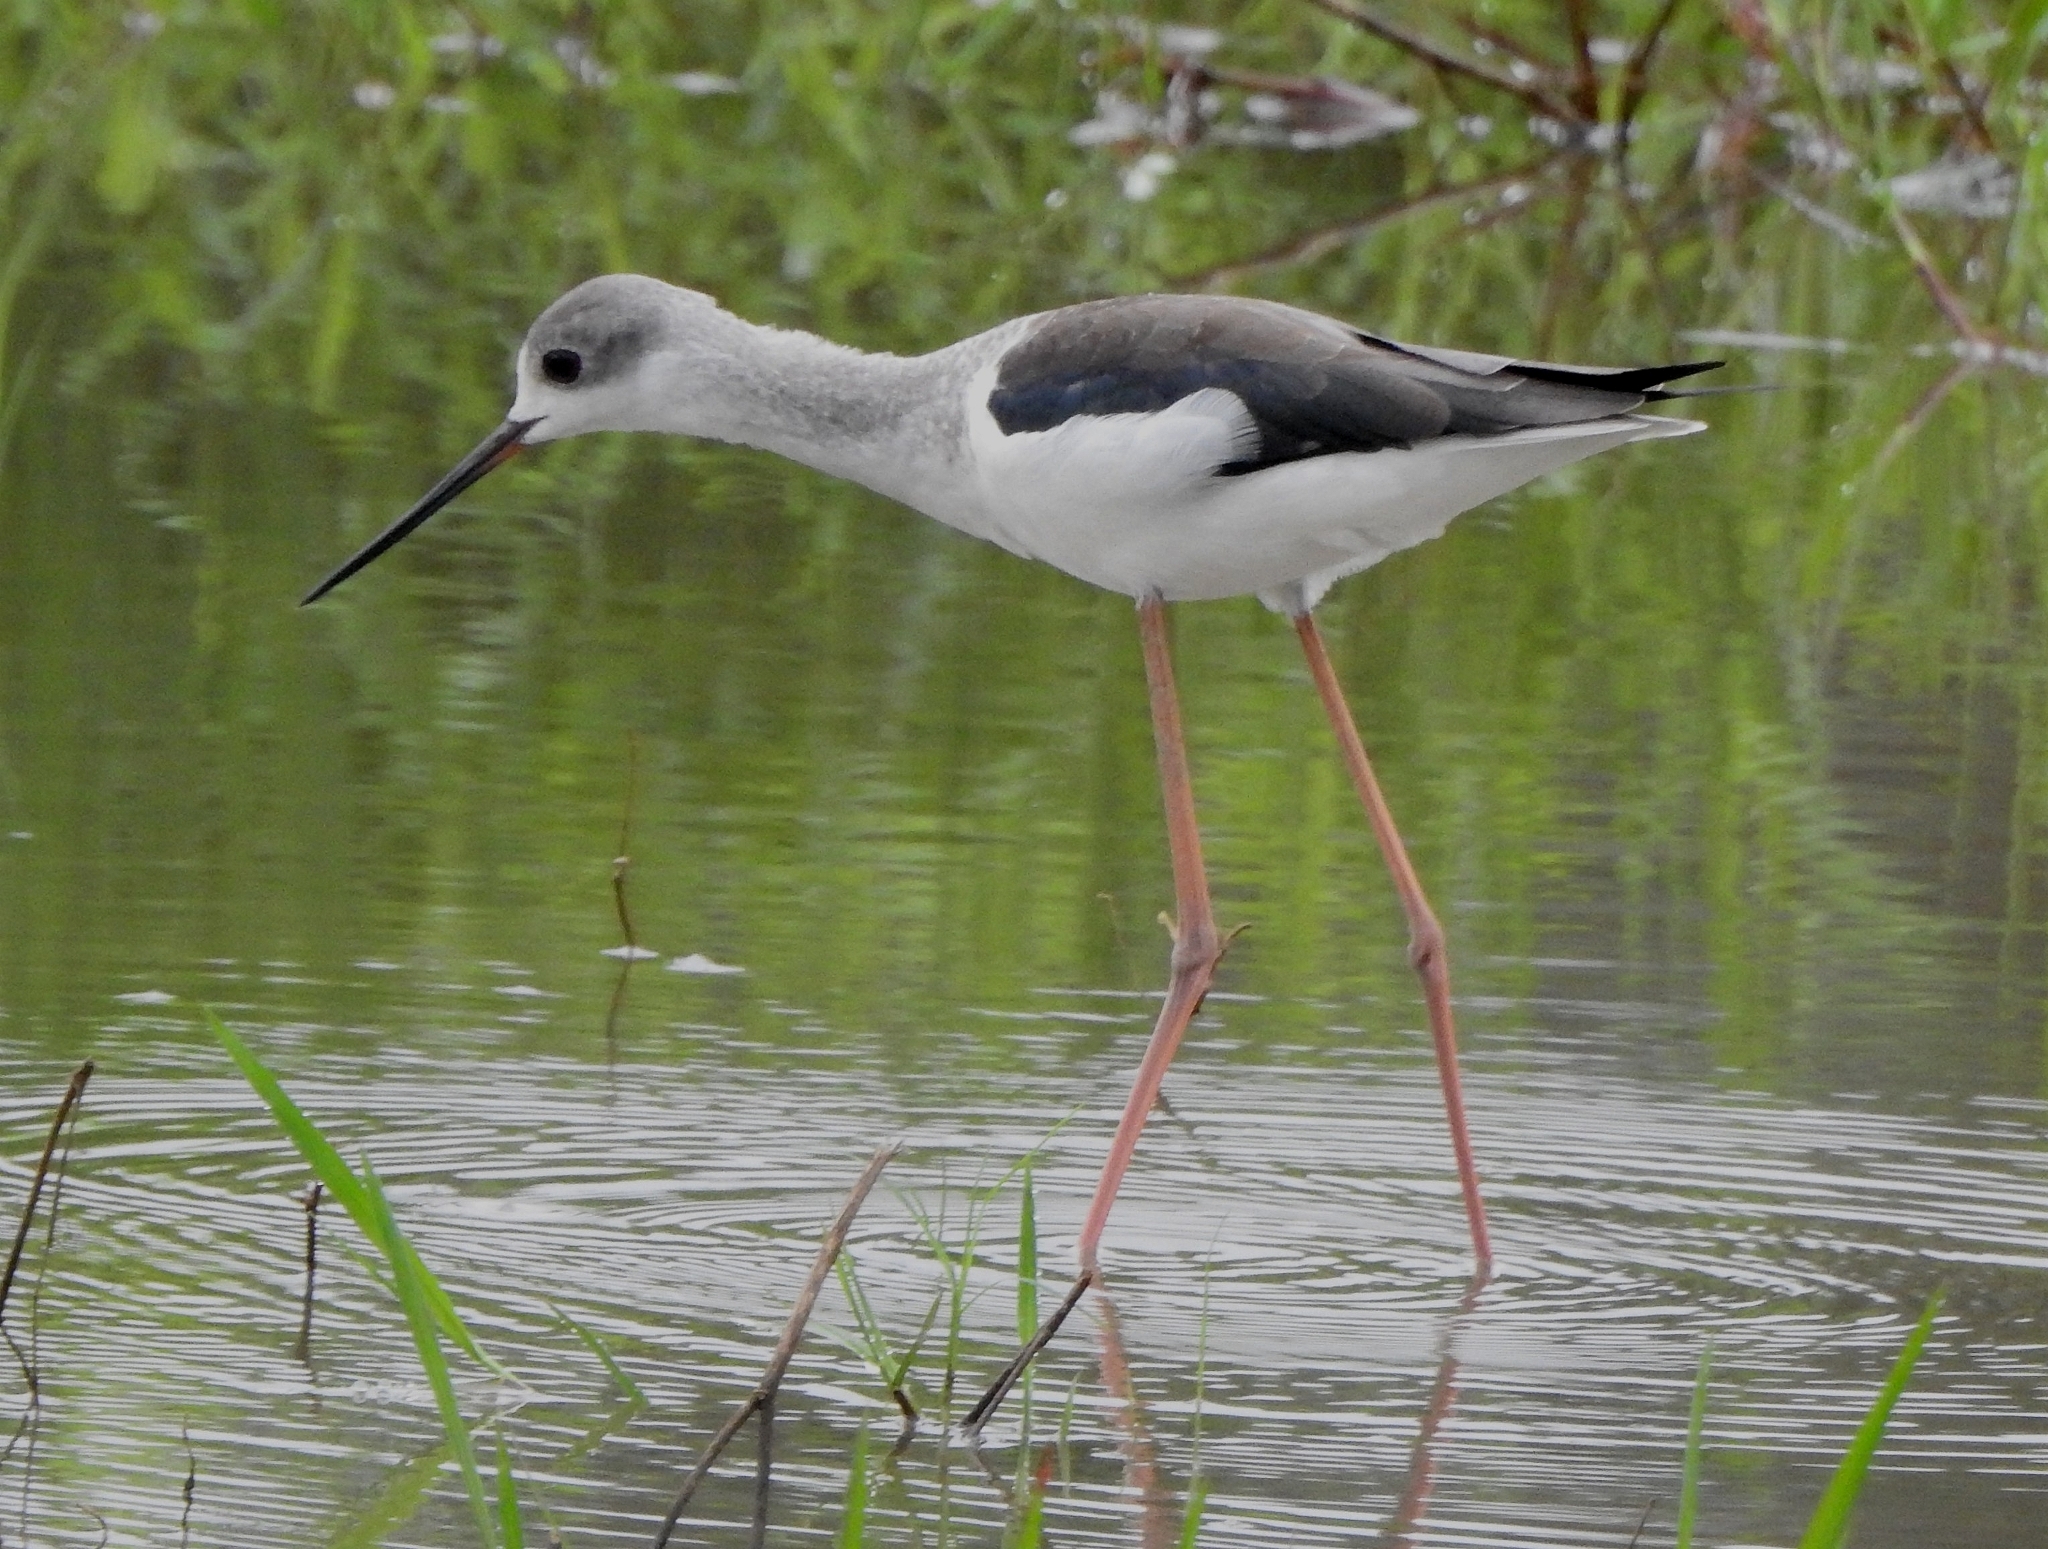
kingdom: Animalia
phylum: Chordata
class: Aves
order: Charadriiformes
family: Recurvirostridae
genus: Himantopus
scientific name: Himantopus himantopus
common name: Black-winged stilt
